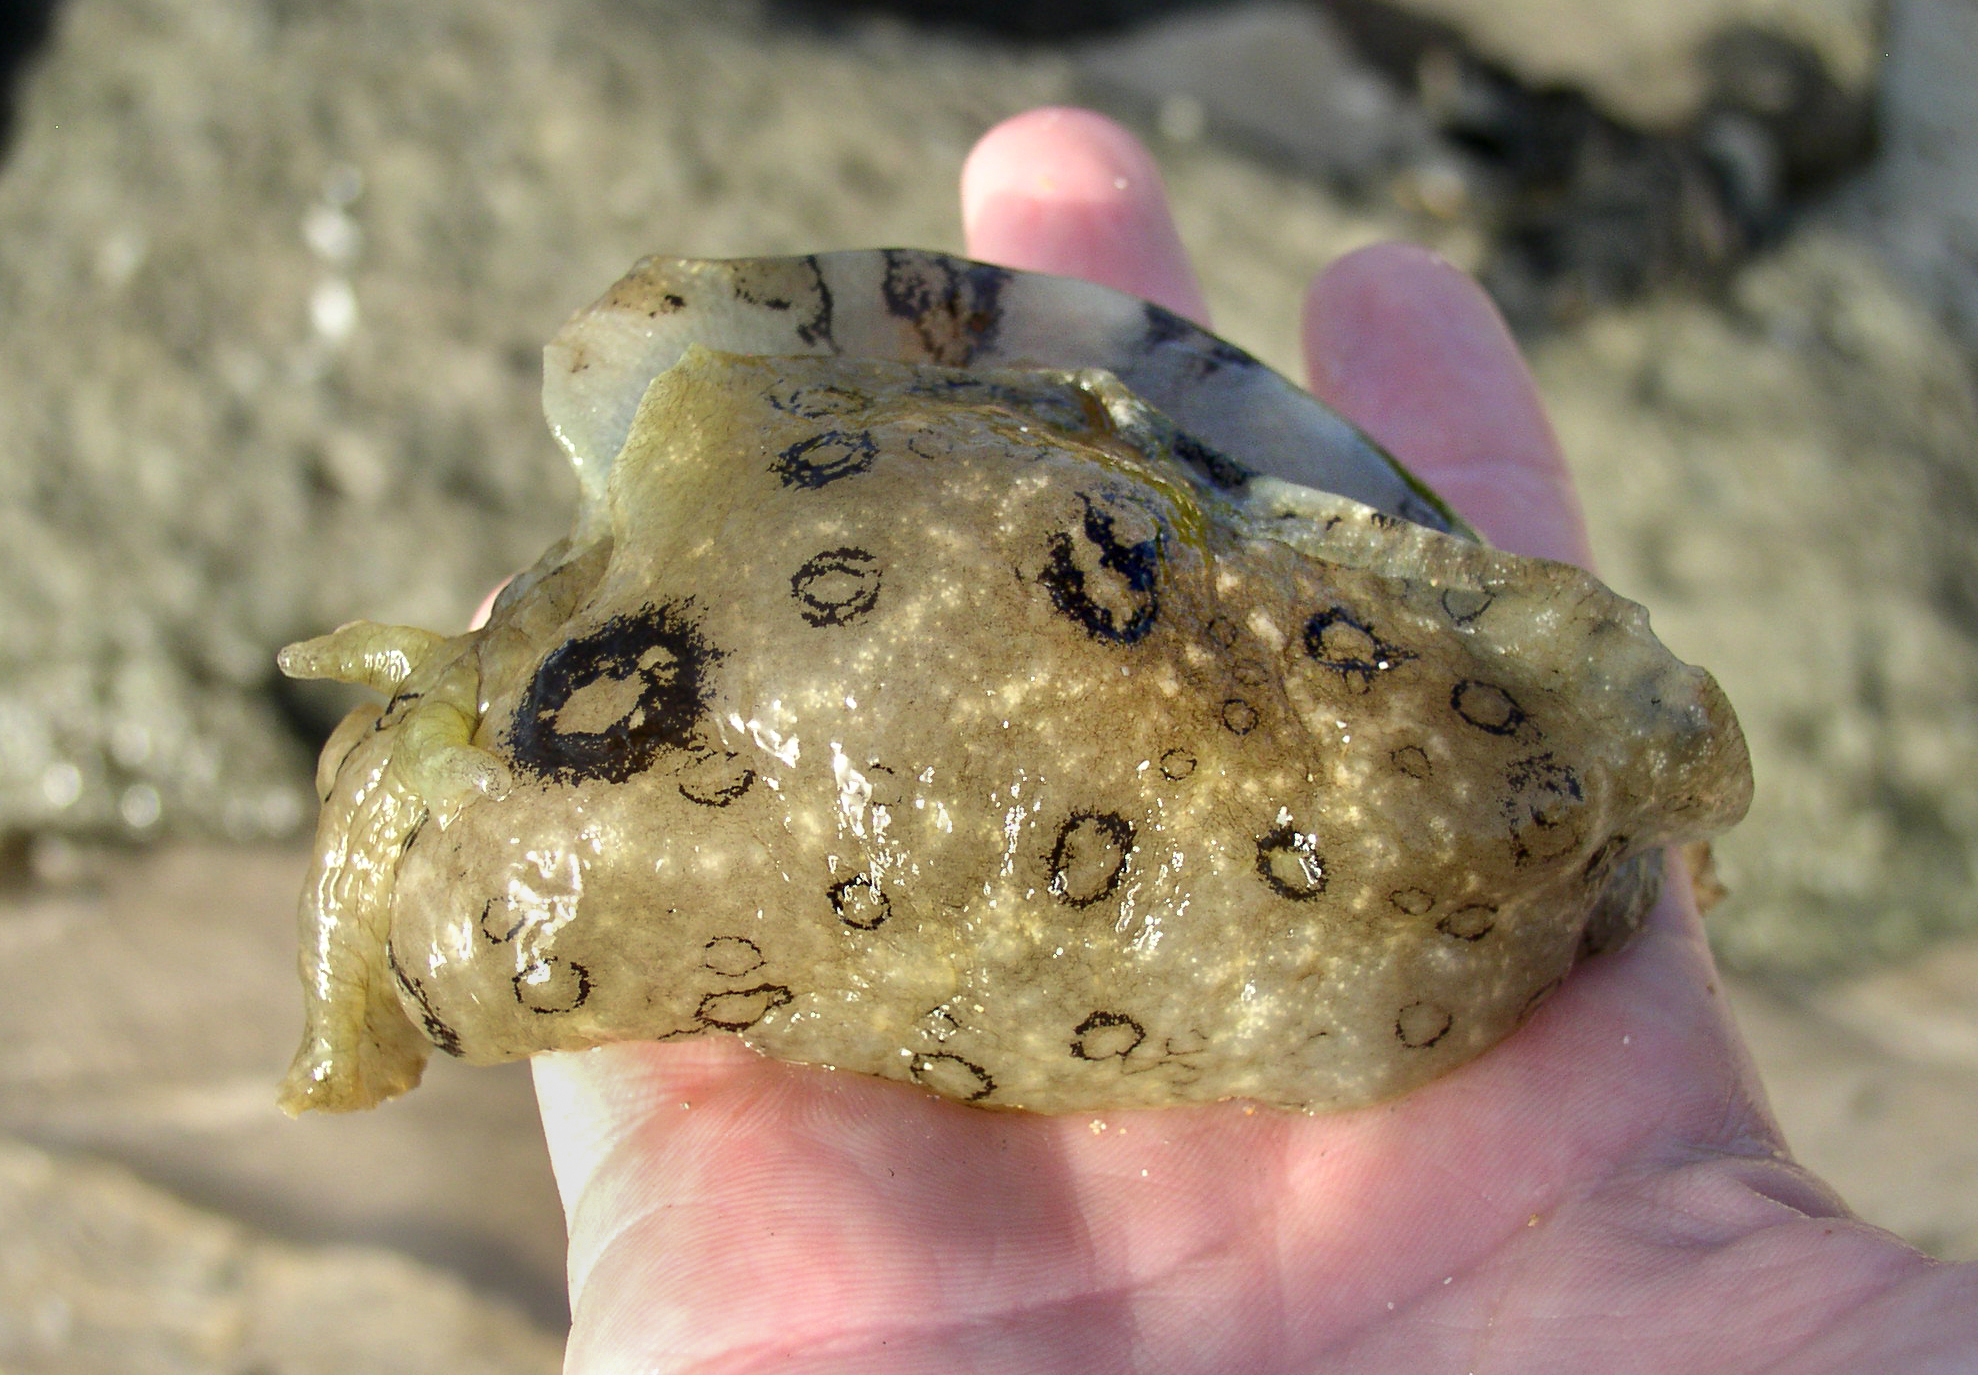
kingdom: Animalia
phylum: Mollusca
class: Gastropoda
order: Aplysiida
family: Aplysiidae
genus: Aplysia
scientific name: Aplysia dactylomela
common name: Large-spotted sea hare
